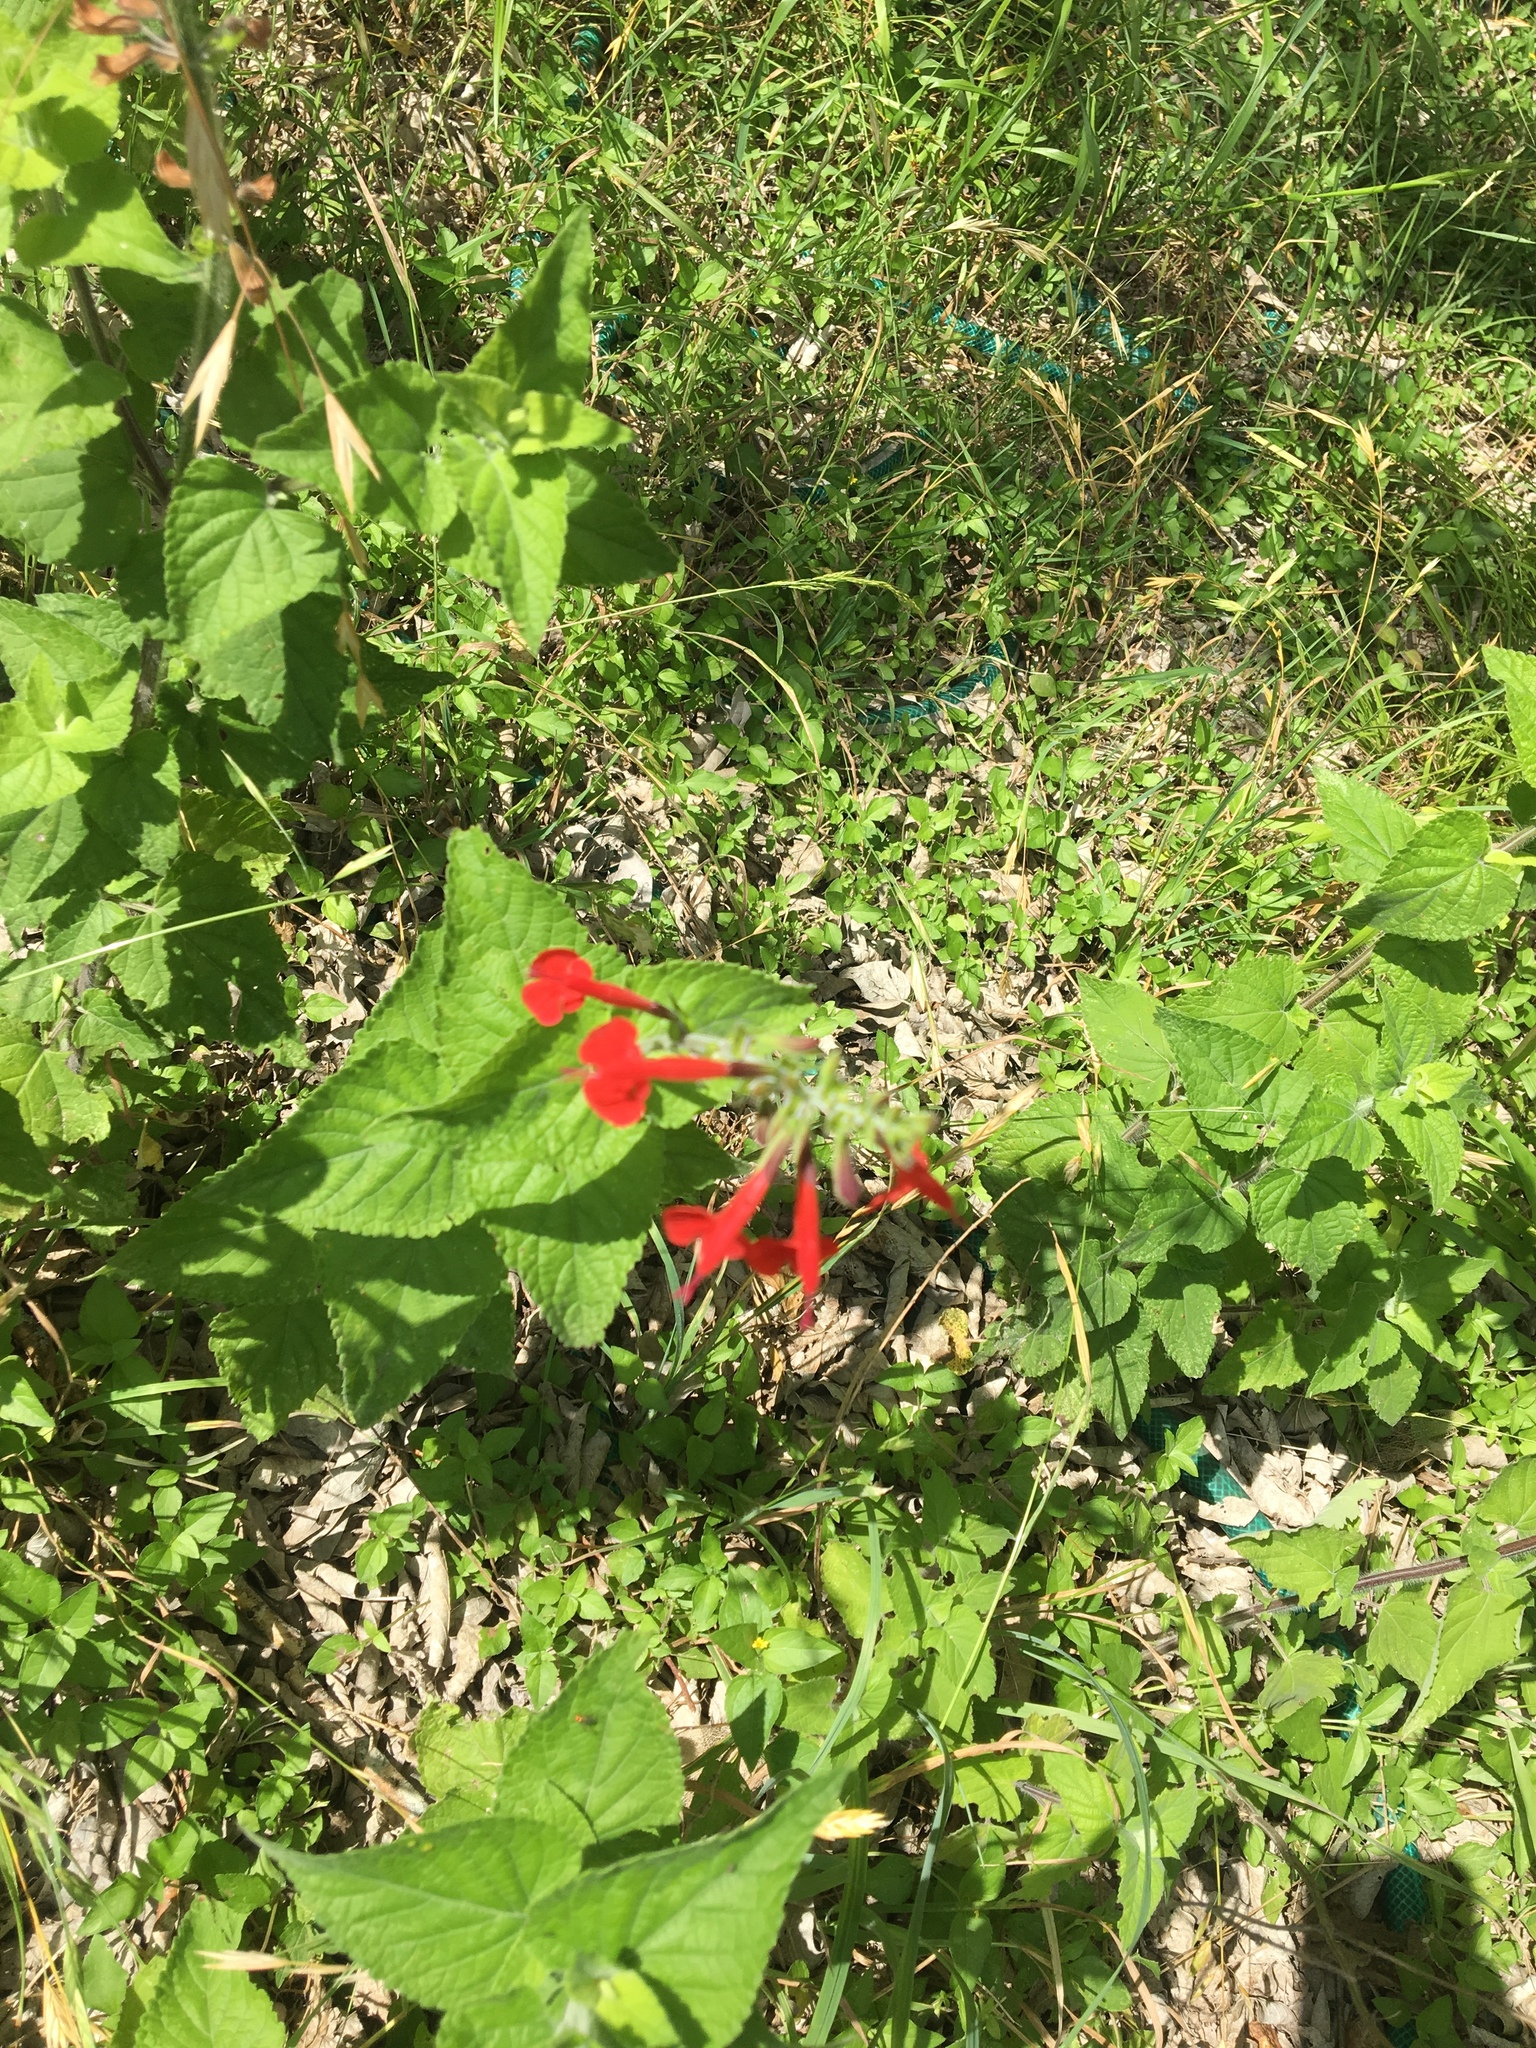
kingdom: Plantae
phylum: Tracheophyta
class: Magnoliopsida
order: Lamiales
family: Lamiaceae
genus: Salvia
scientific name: Salvia coccinea
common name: Blood sage
